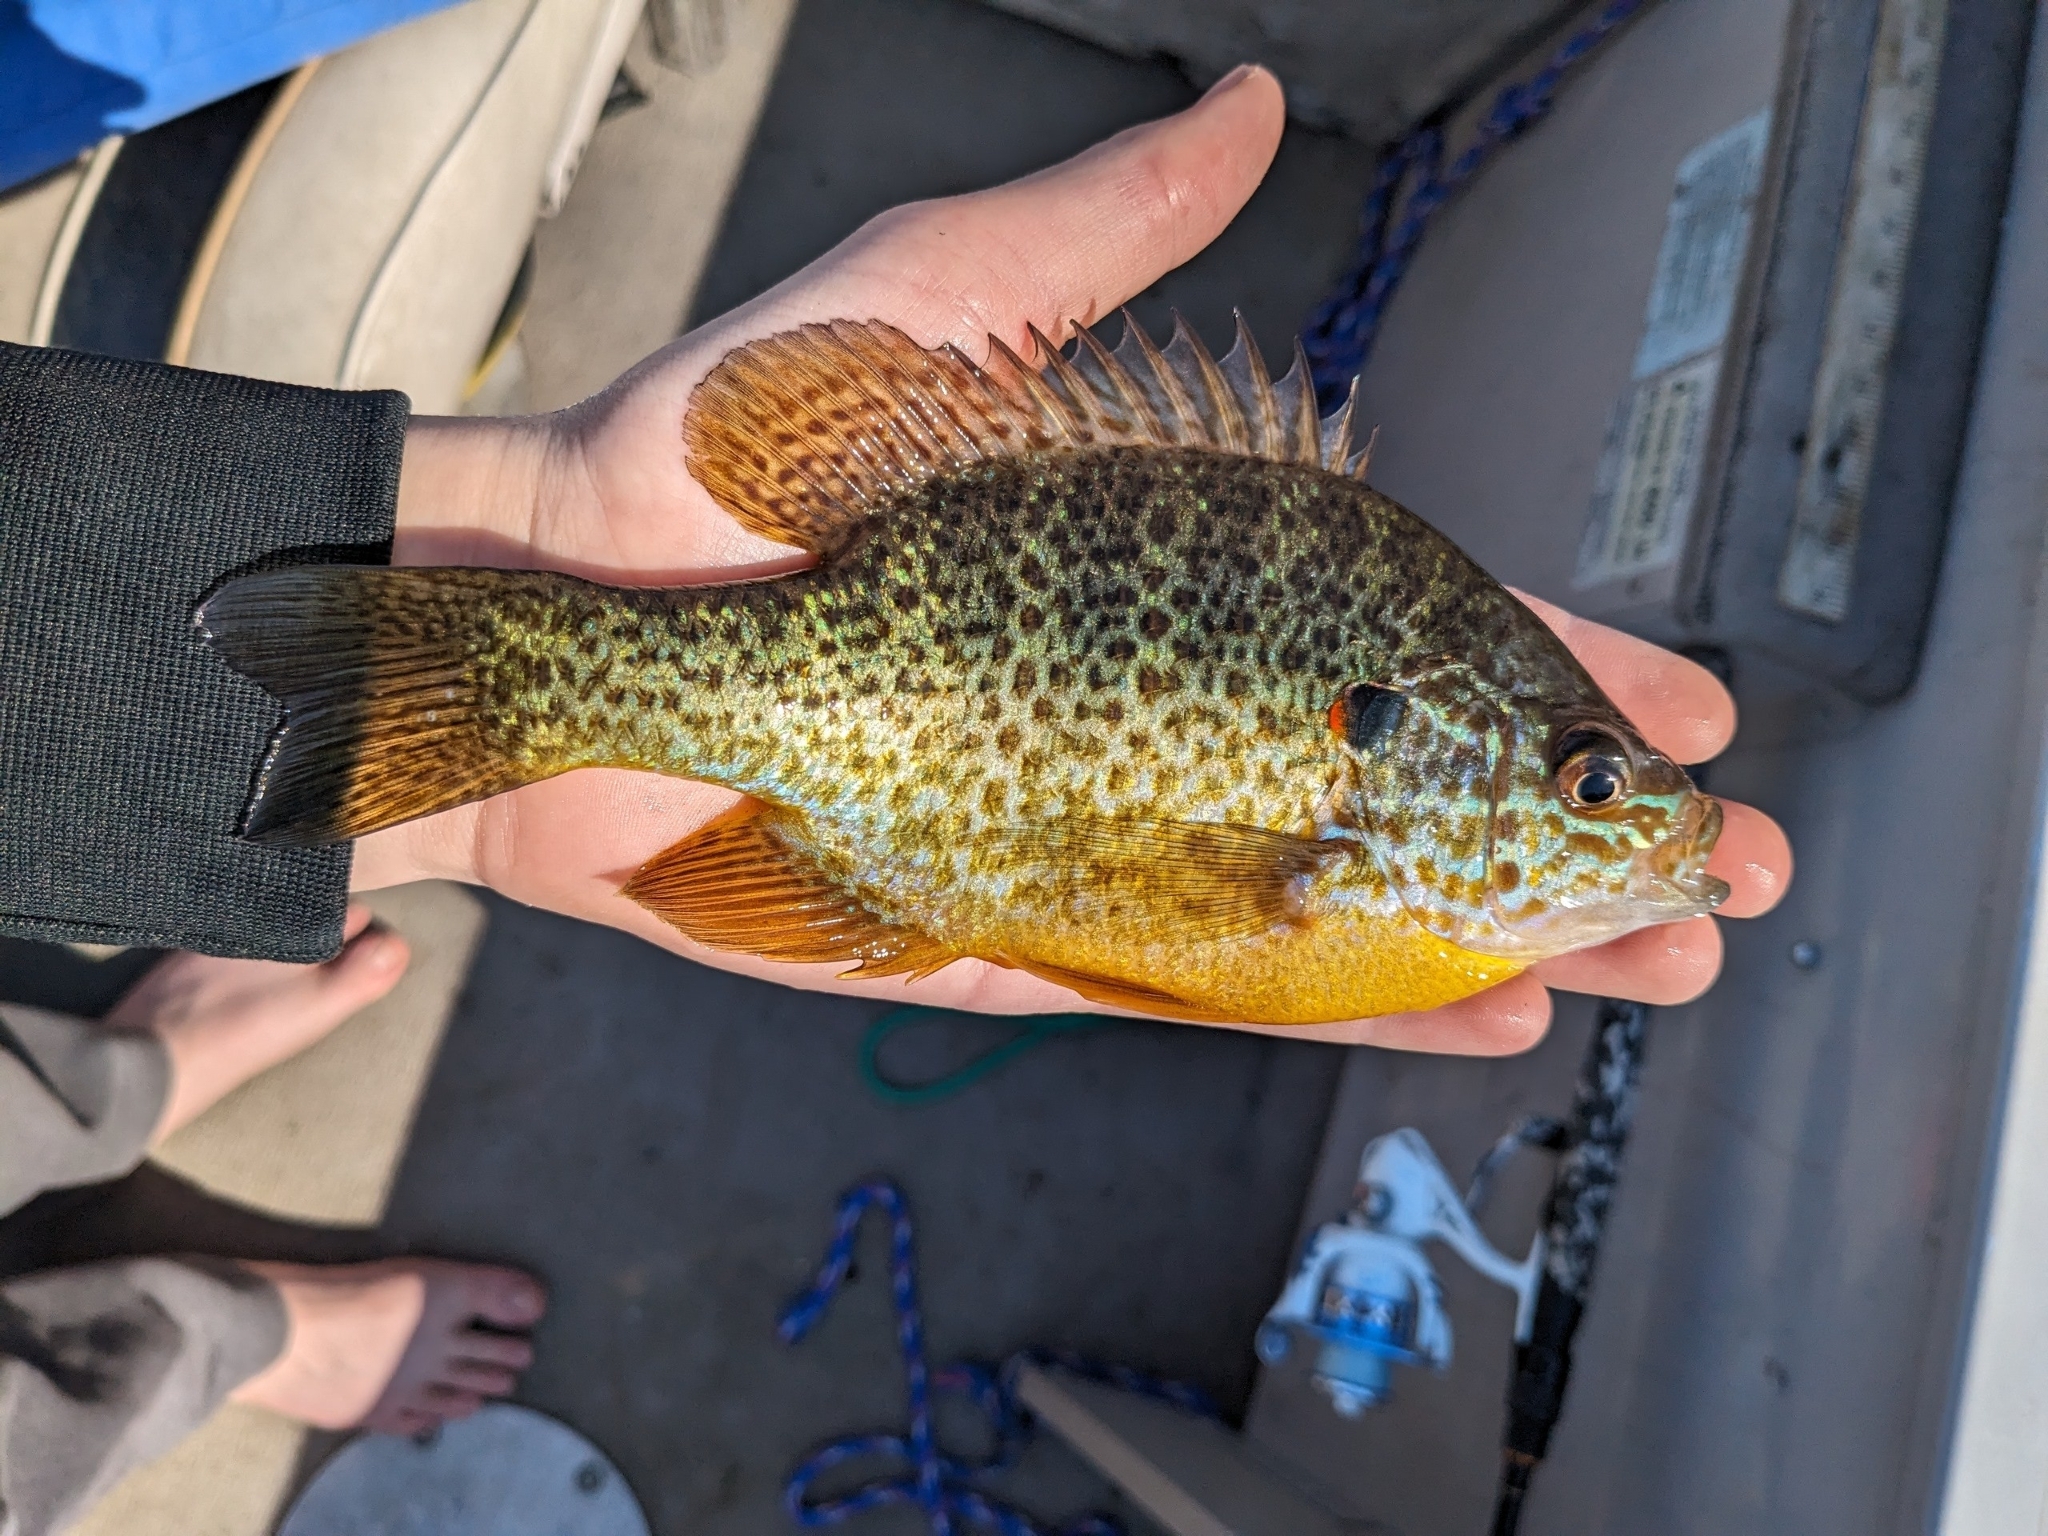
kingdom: Animalia
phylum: Chordata
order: Perciformes
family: Centrarchidae
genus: Lepomis
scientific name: Lepomis gibbosus
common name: Pumpkinseed
